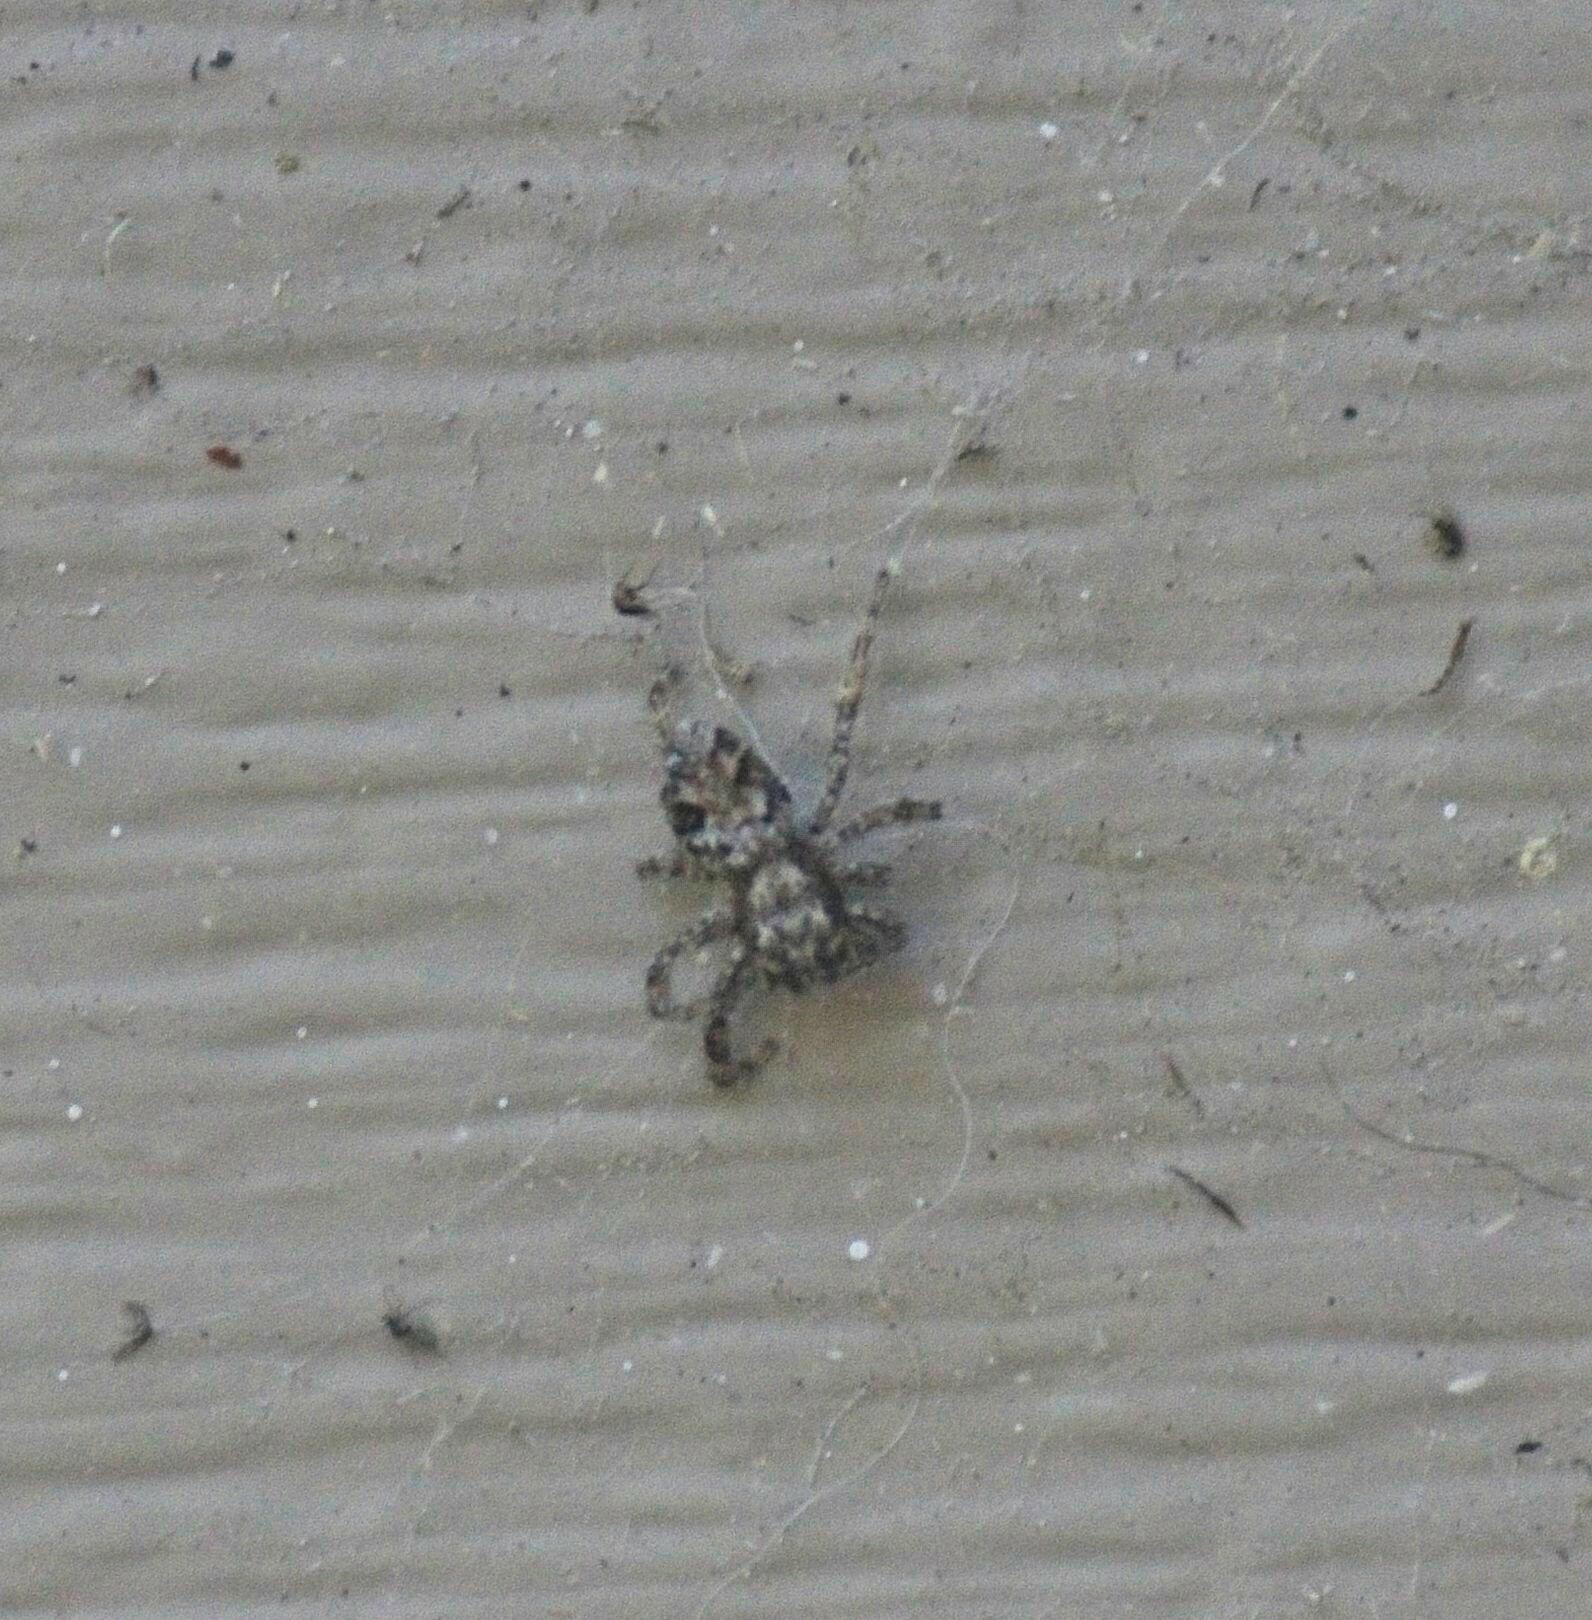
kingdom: Animalia
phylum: Arthropoda
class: Arachnida
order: Araneae
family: Salticidae
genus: Platycryptus
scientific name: Platycryptus californicus
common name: Jumping spiders
